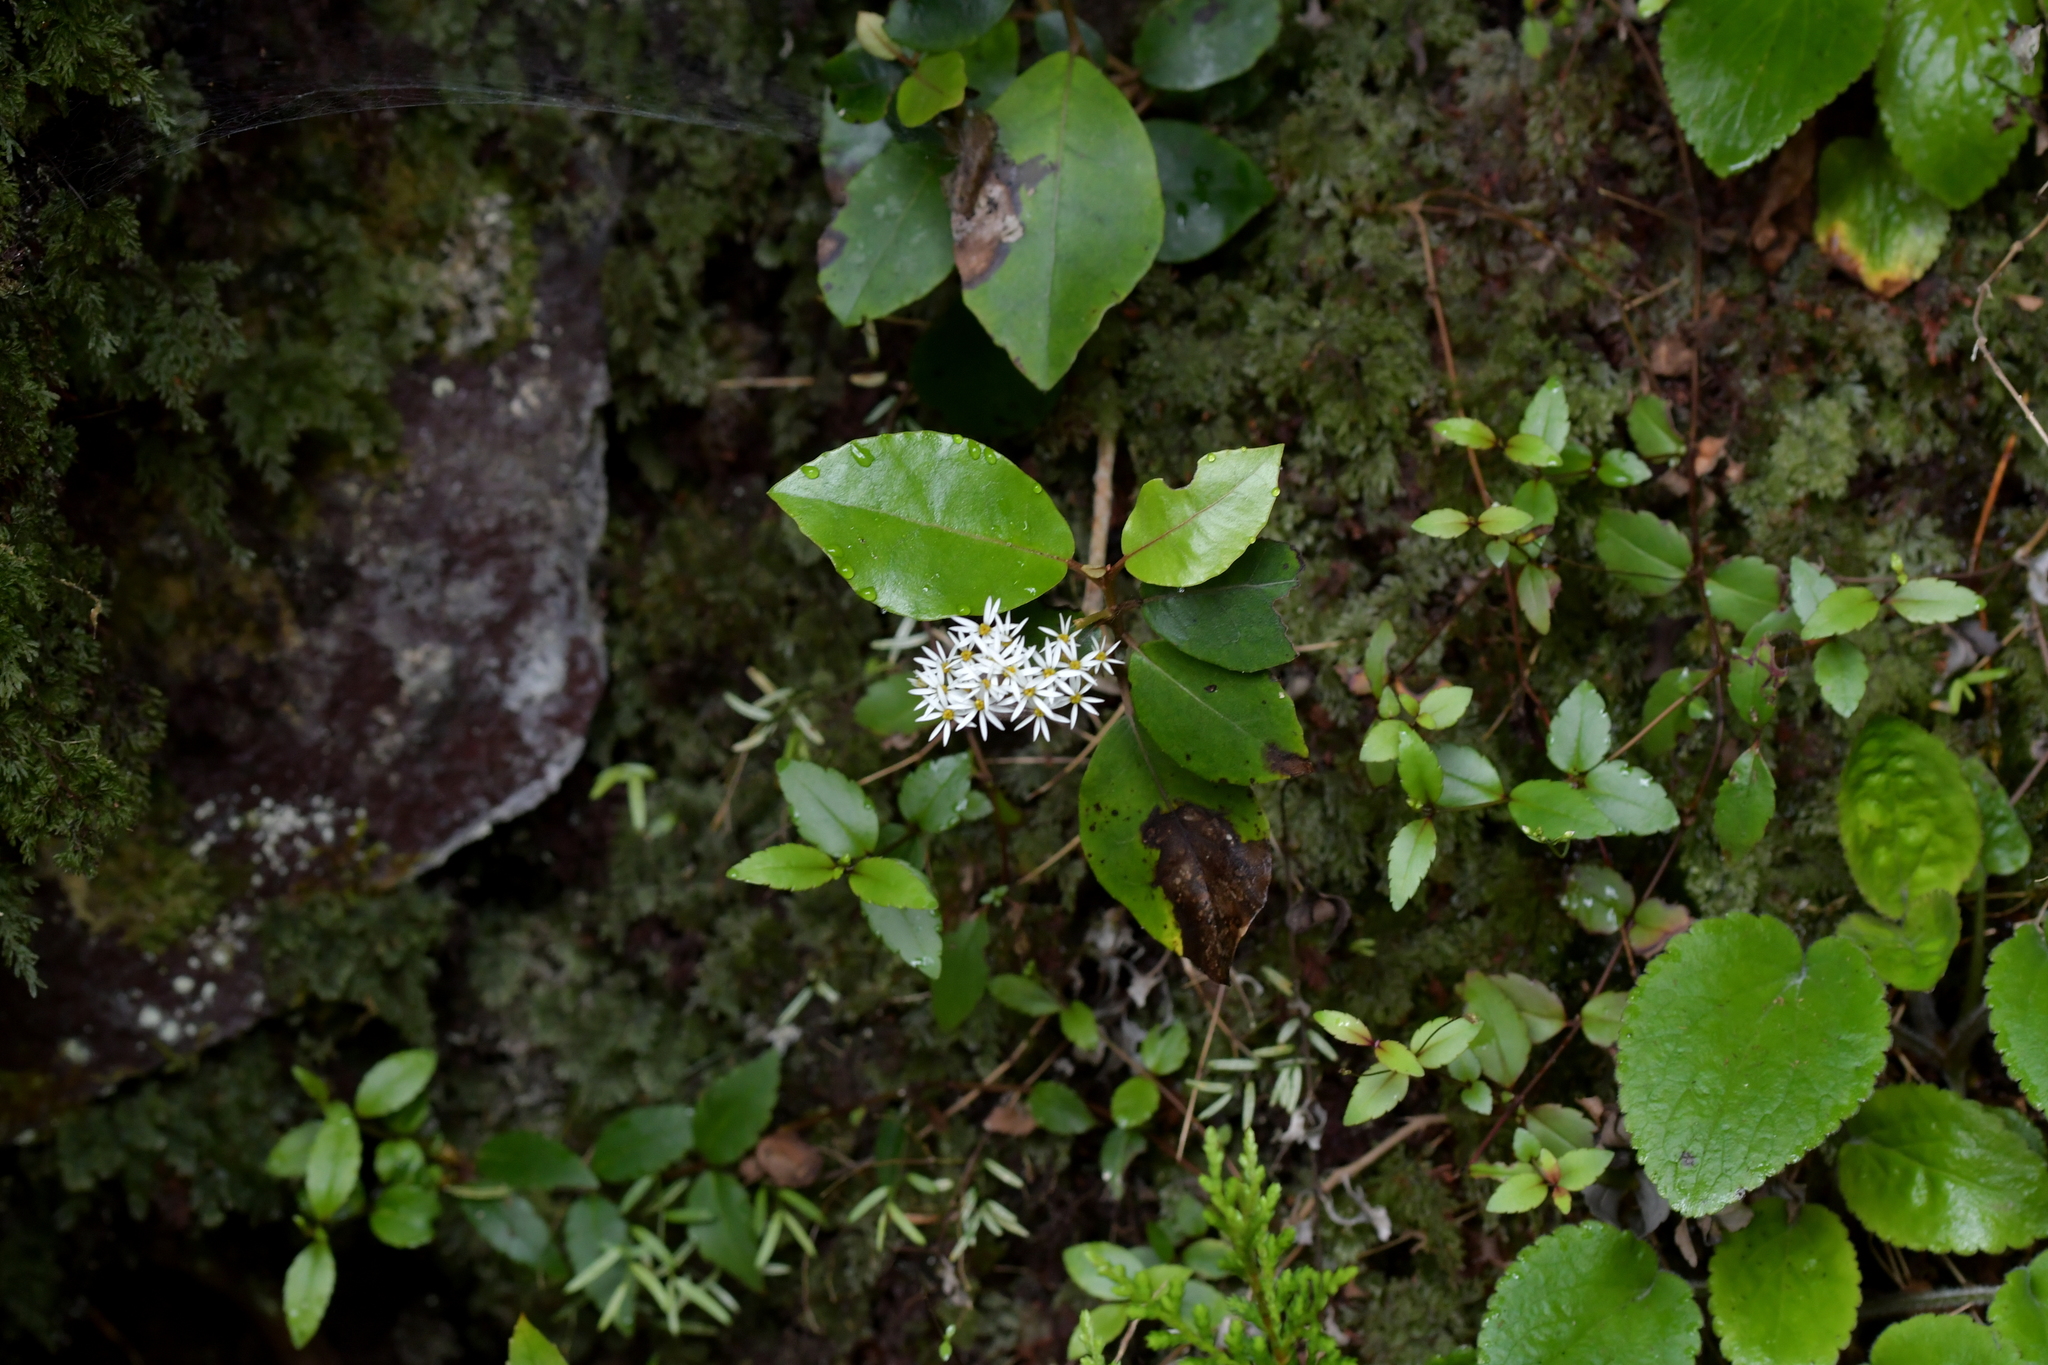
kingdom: Plantae
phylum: Tracheophyta
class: Magnoliopsida
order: Asterales
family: Asteraceae
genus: Olearia
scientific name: Olearia arborescens
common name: Glossy tree daisy
